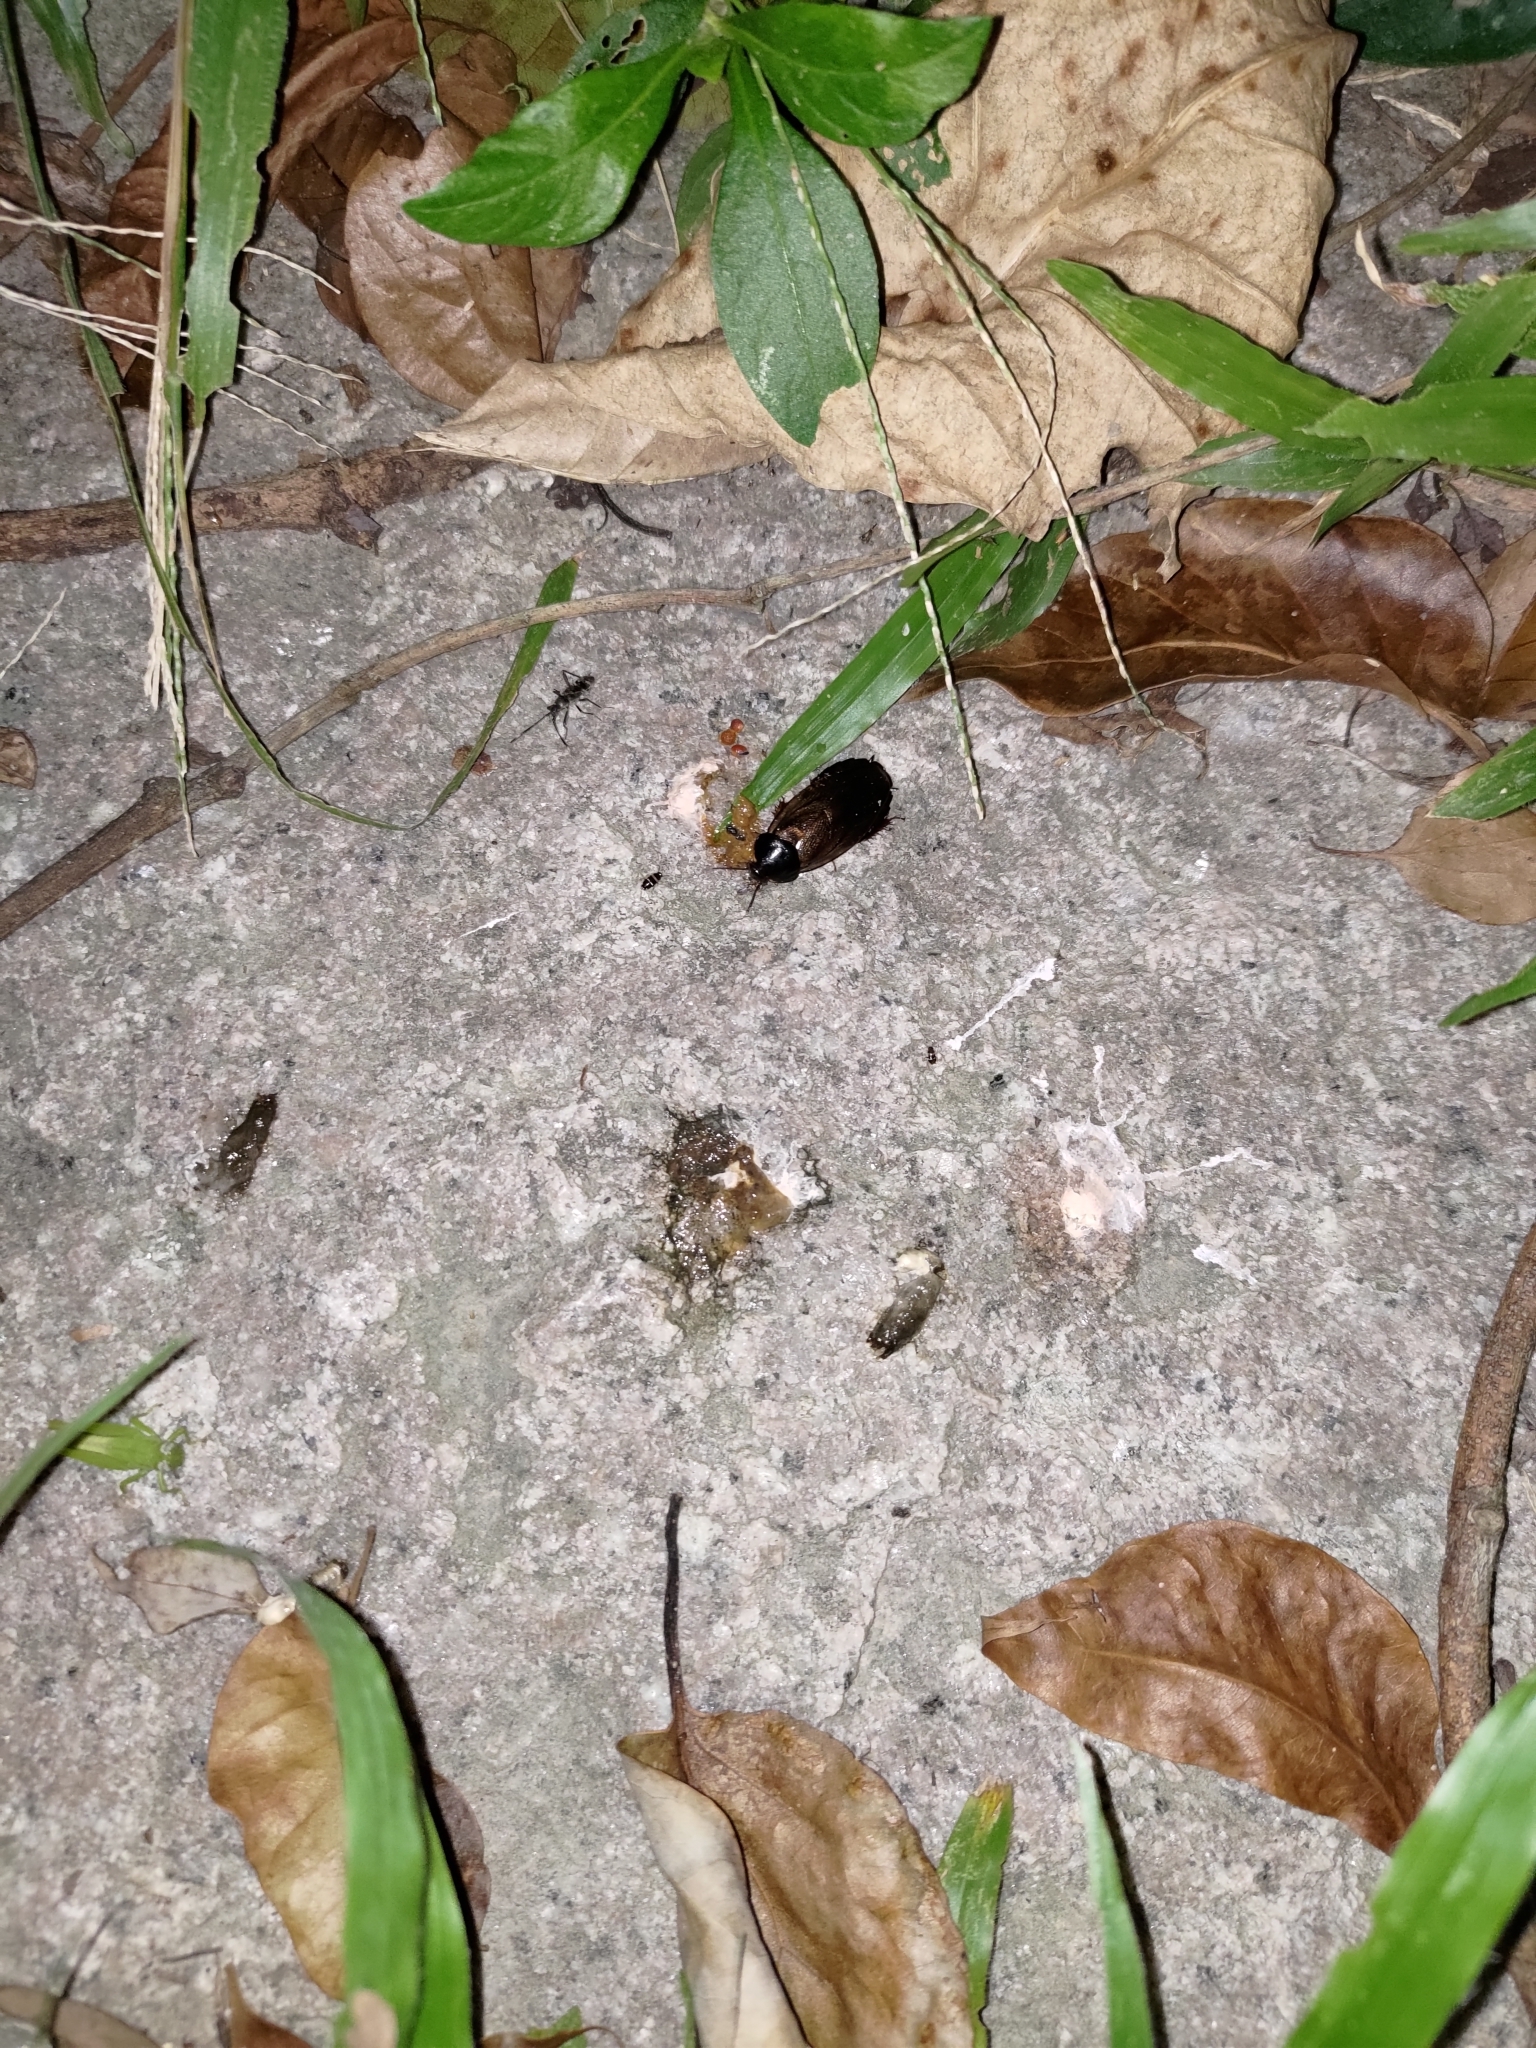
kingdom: Animalia
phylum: Arthropoda
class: Insecta
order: Blattodea
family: Blaberidae
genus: Pycnoscelus
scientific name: Pycnoscelus surinamensis
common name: Surinam cockroach
